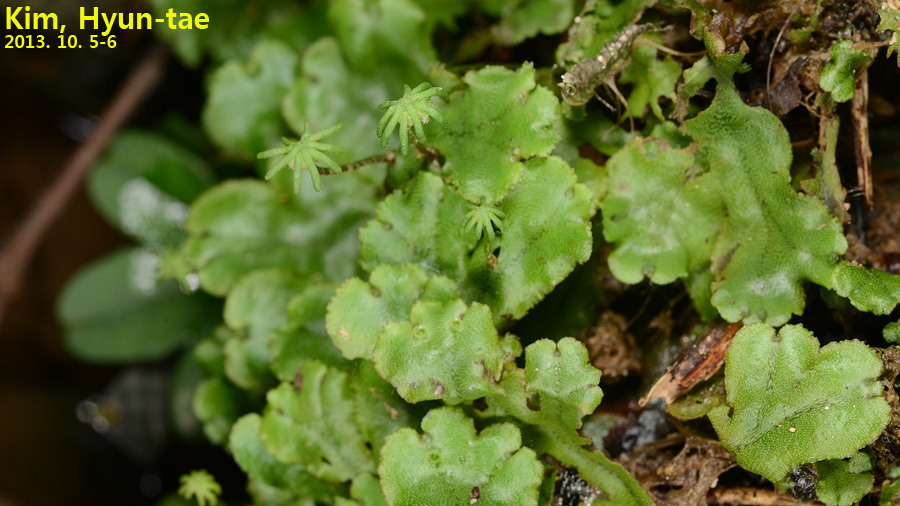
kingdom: Plantae
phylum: Marchantiophyta
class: Marchantiopsida
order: Marchantiales
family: Marchantiaceae
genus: Marchantia
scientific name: Marchantia polymorpha
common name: Common liverwort
